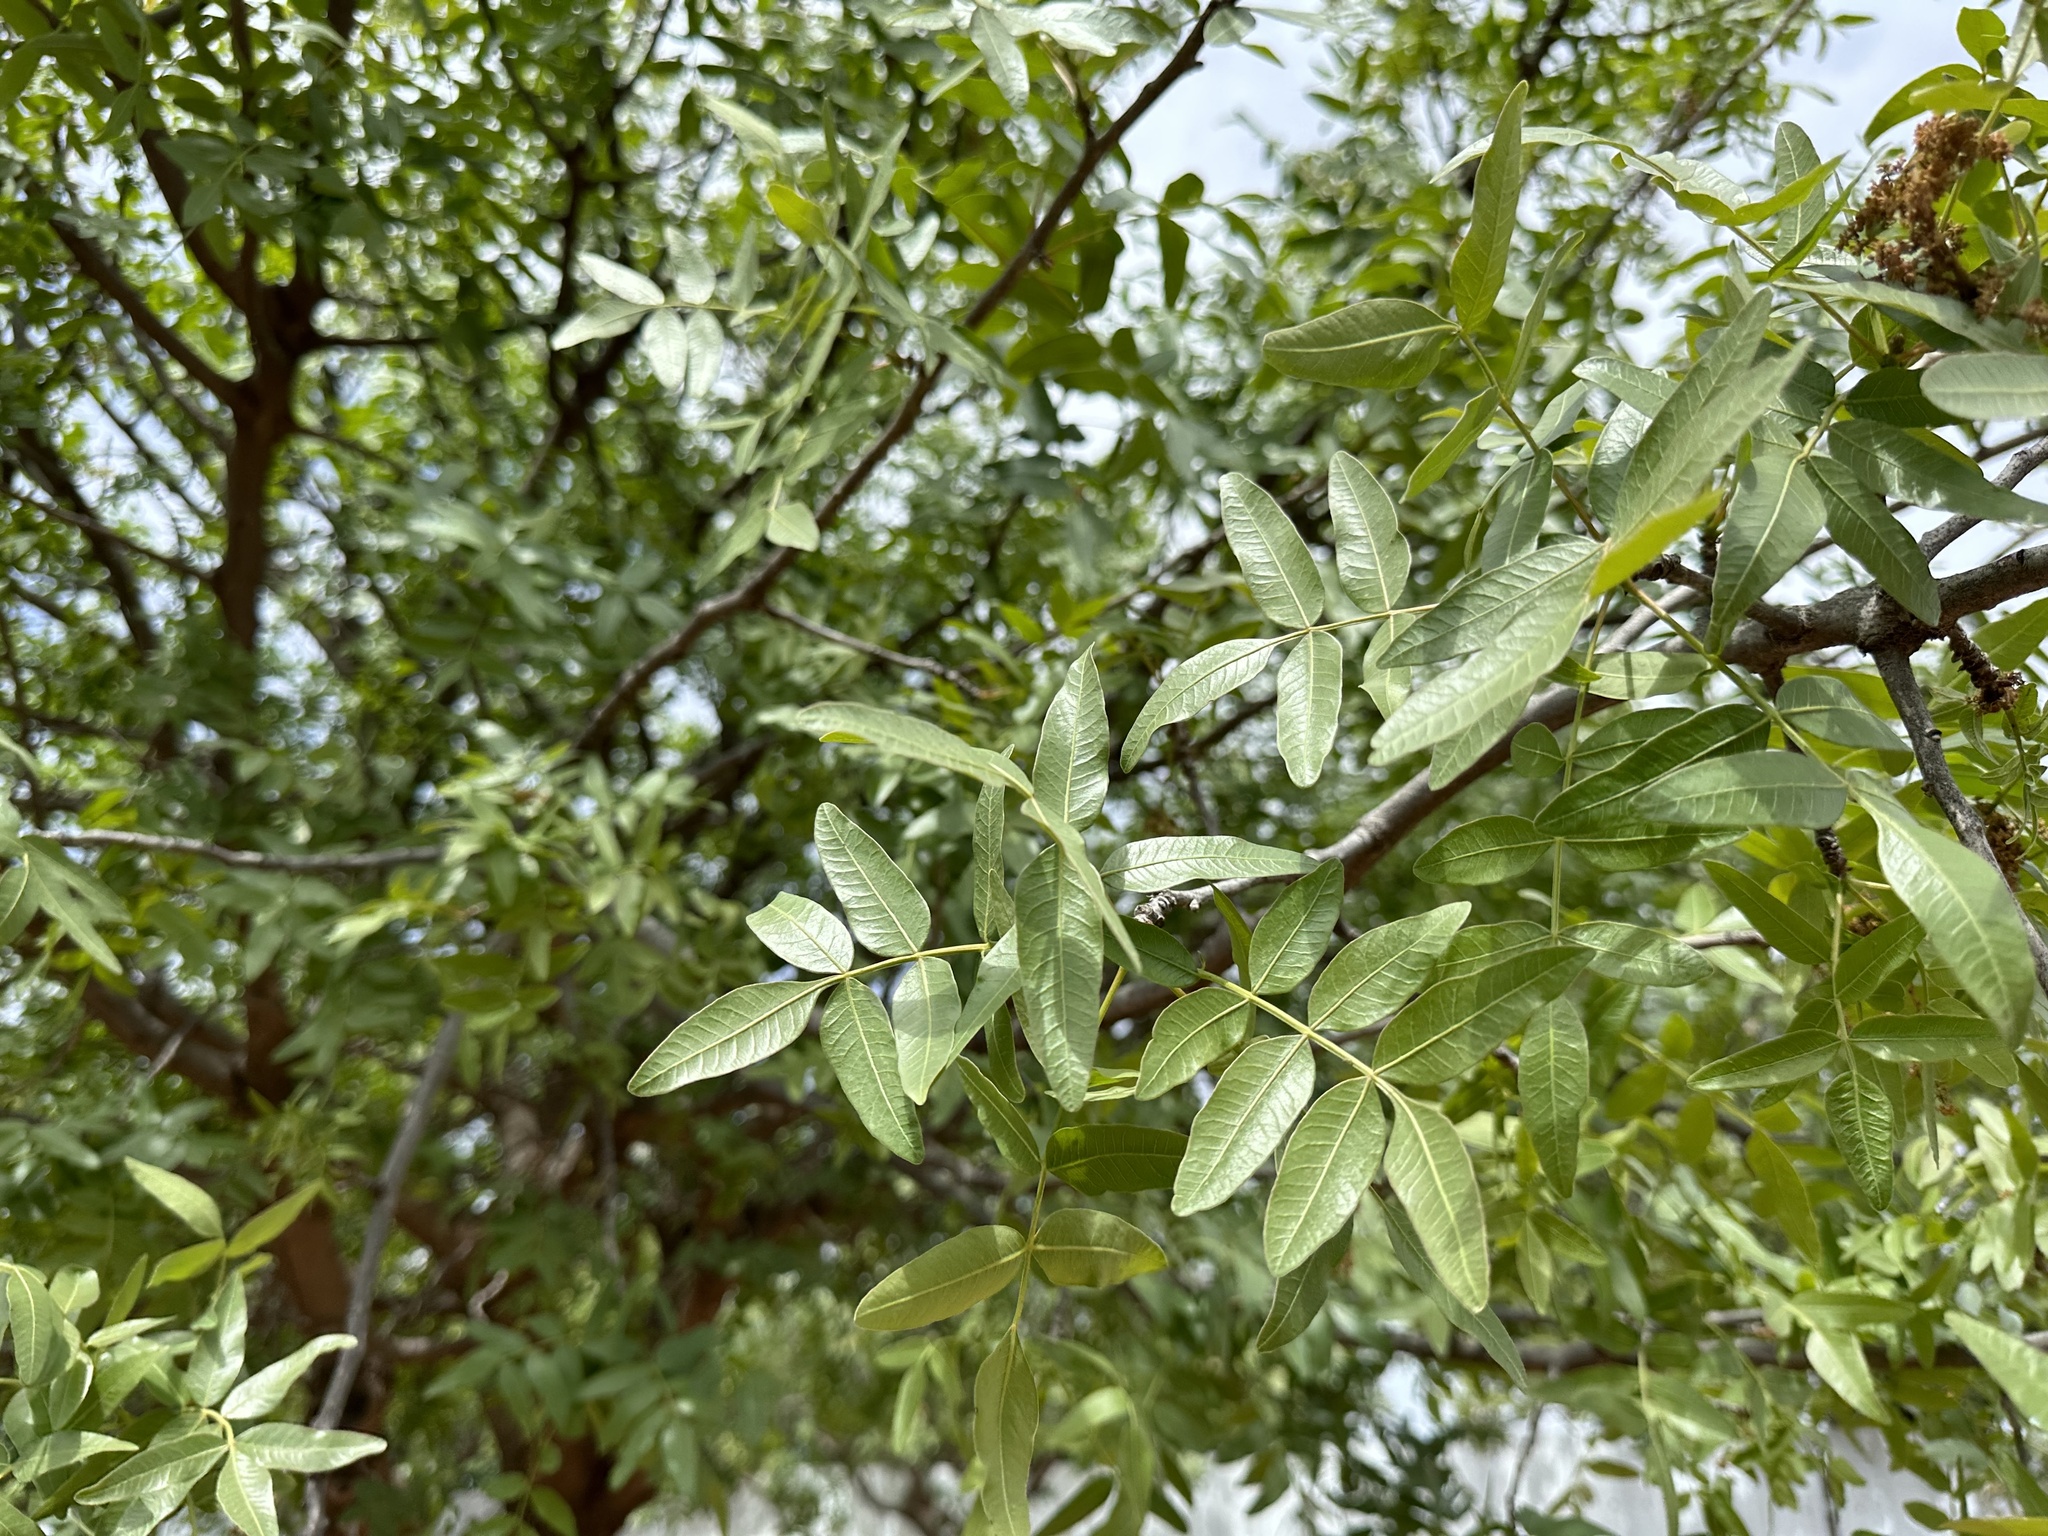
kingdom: Plantae
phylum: Tracheophyta
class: Magnoliopsida
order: Sapindales
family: Anacardiaceae
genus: Pistacia
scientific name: Pistacia terebinthus
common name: Terebinth
